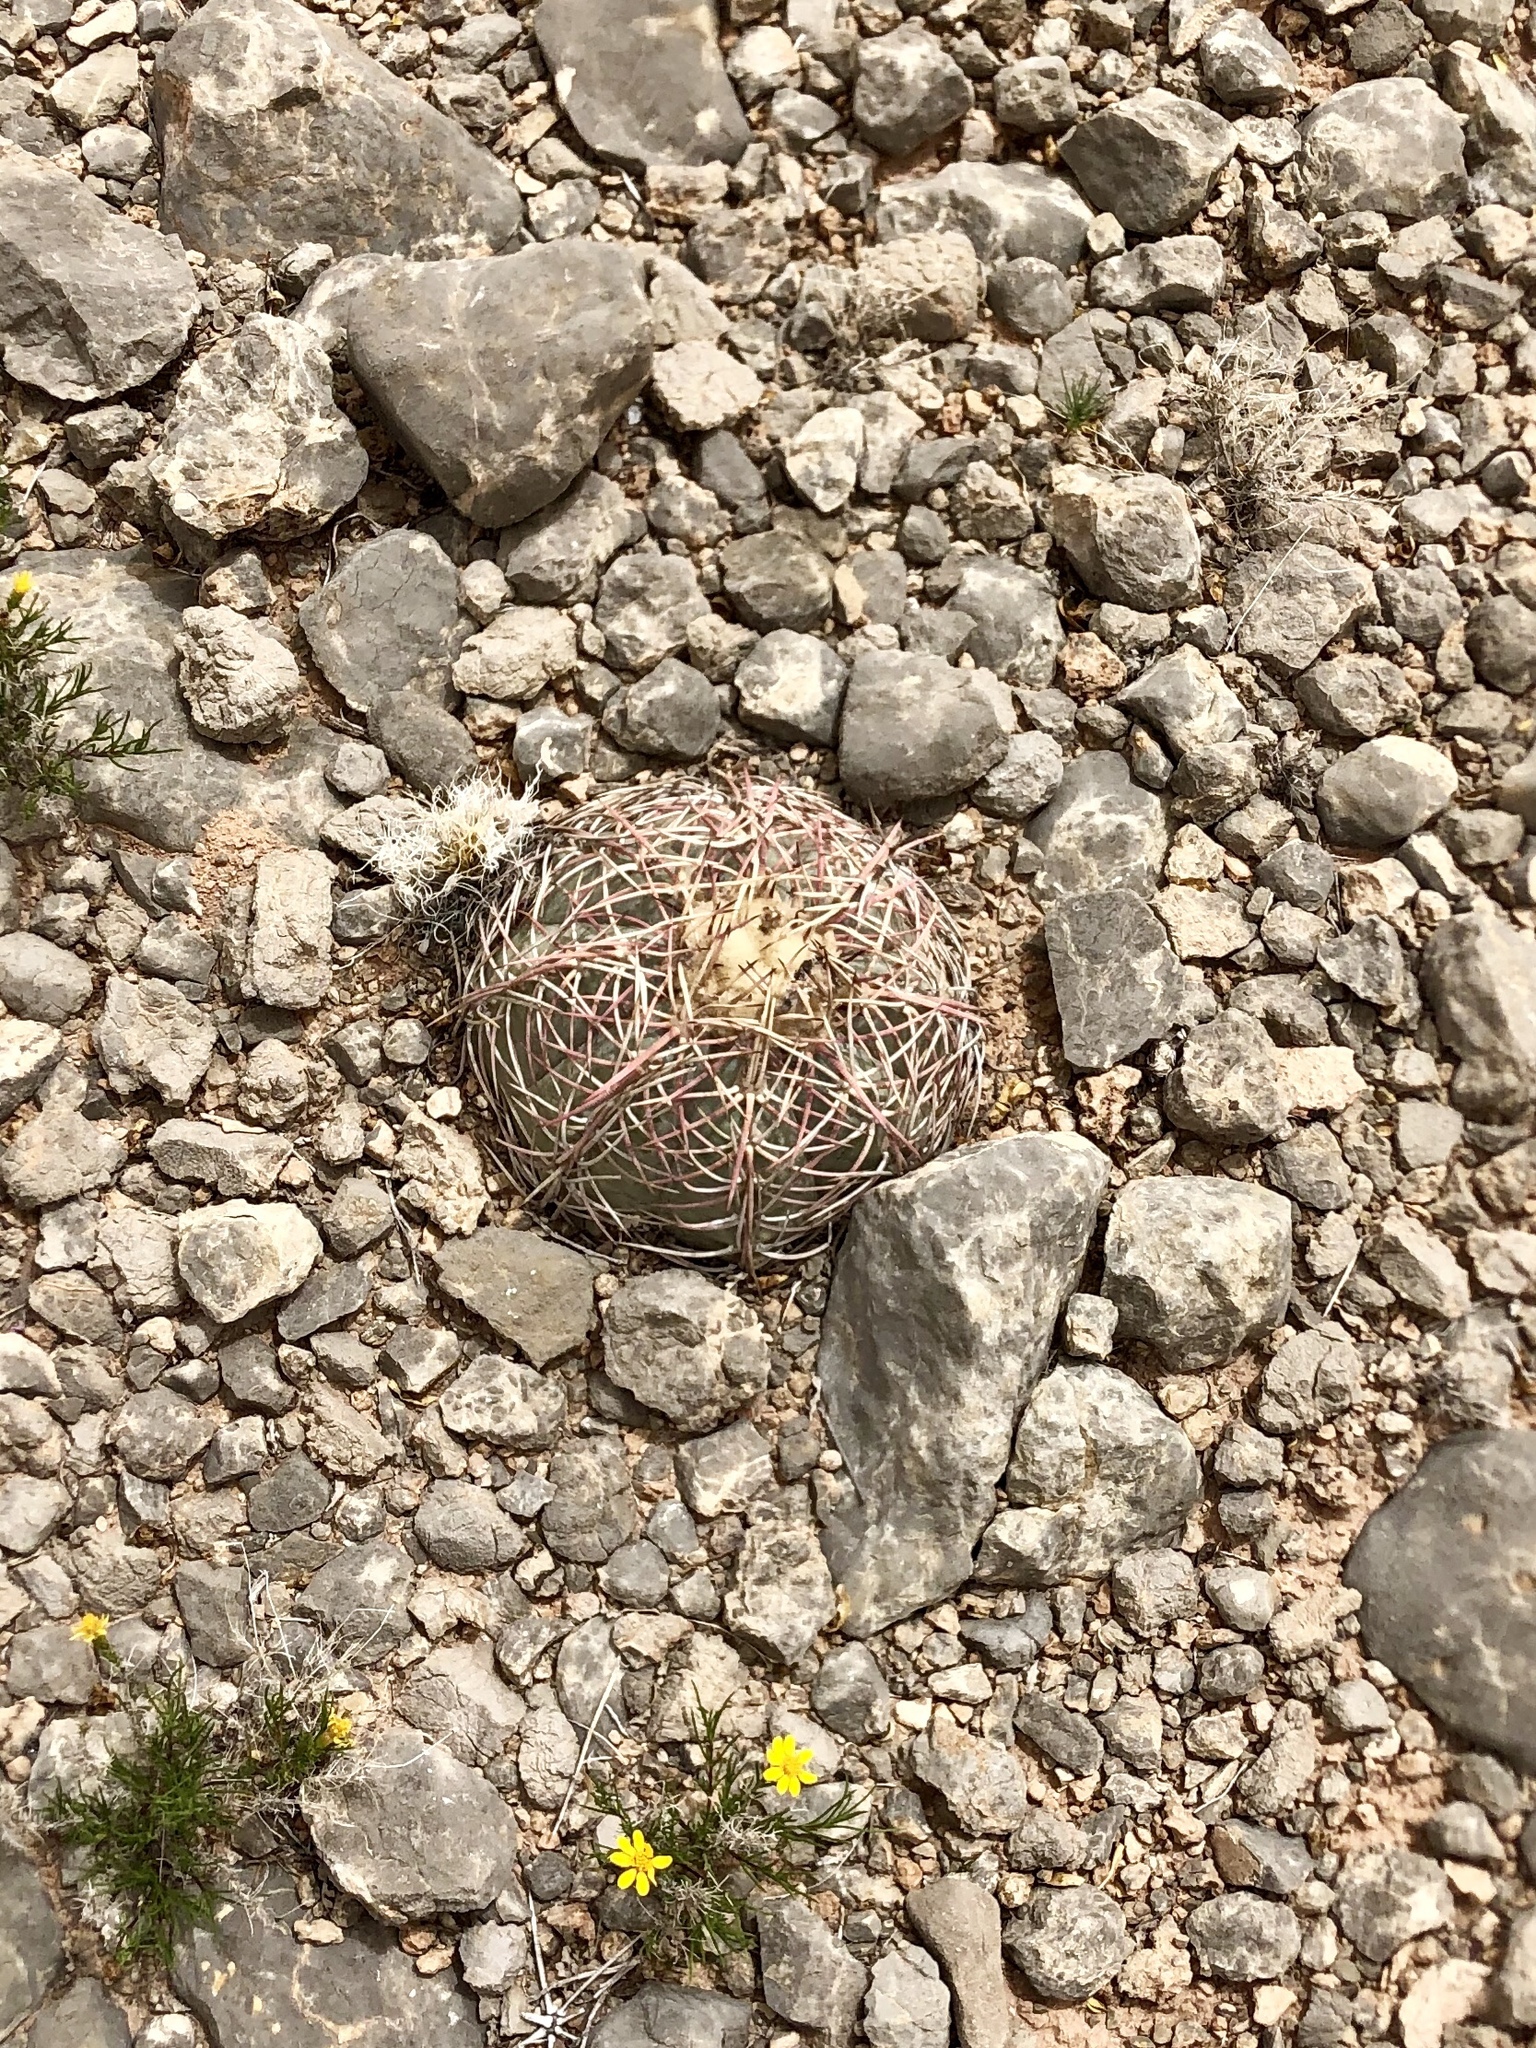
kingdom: Plantae
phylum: Tracheophyta
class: Magnoliopsida
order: Caryophyllales
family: Cactaceae
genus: Echinocactus
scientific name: Echinocactus horizonthalonius
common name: Devilshead
